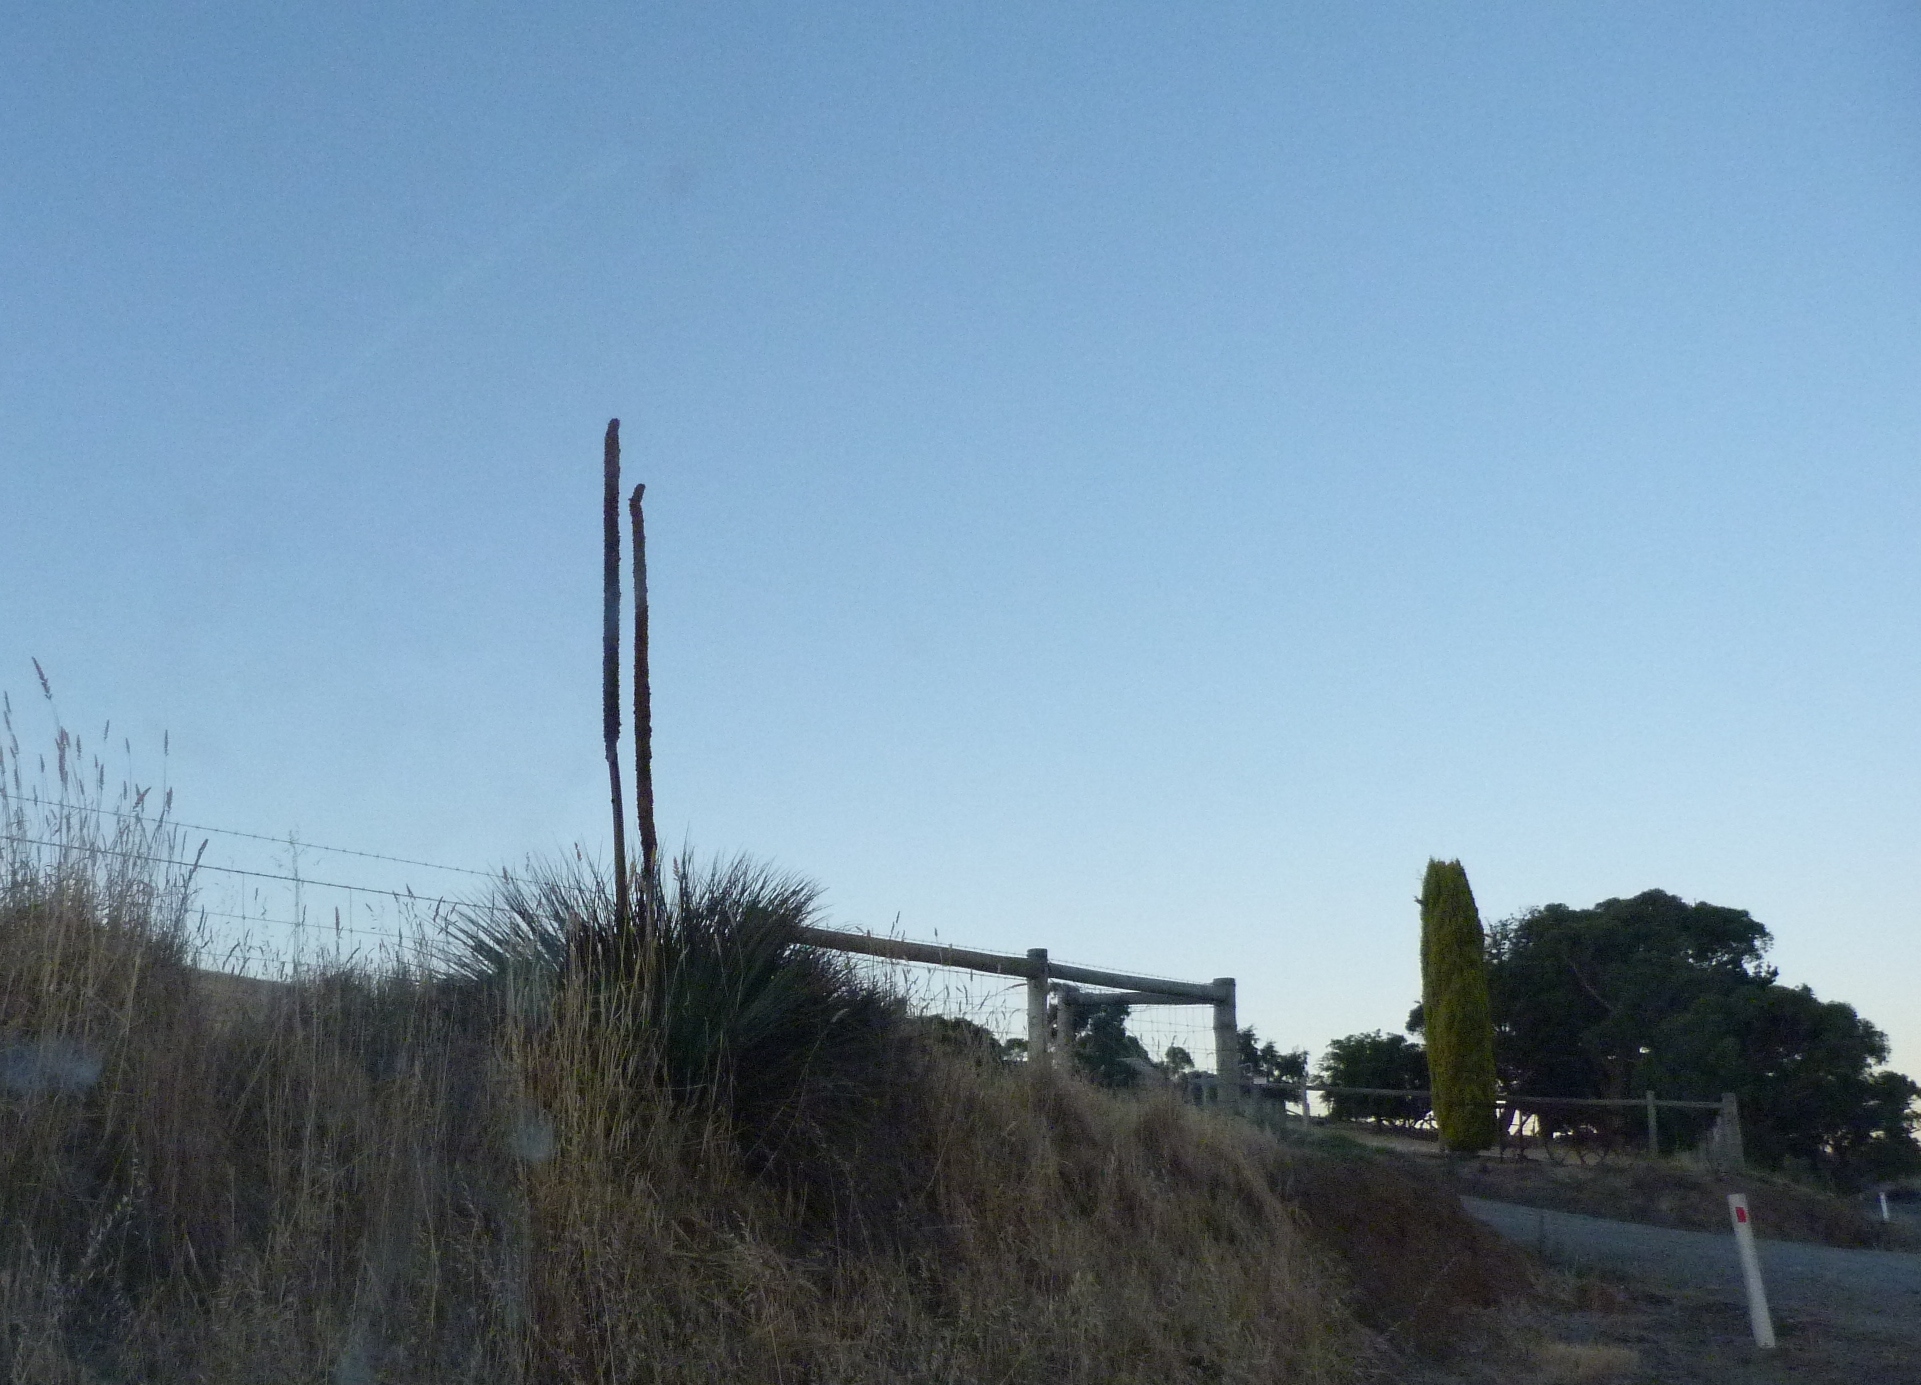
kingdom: Plantae
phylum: Tracheophyta
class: Liliopsida
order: Asparagales
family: Asphodelaceae
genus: Xanthorrhoea
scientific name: Xanthorrhoea semiplana
